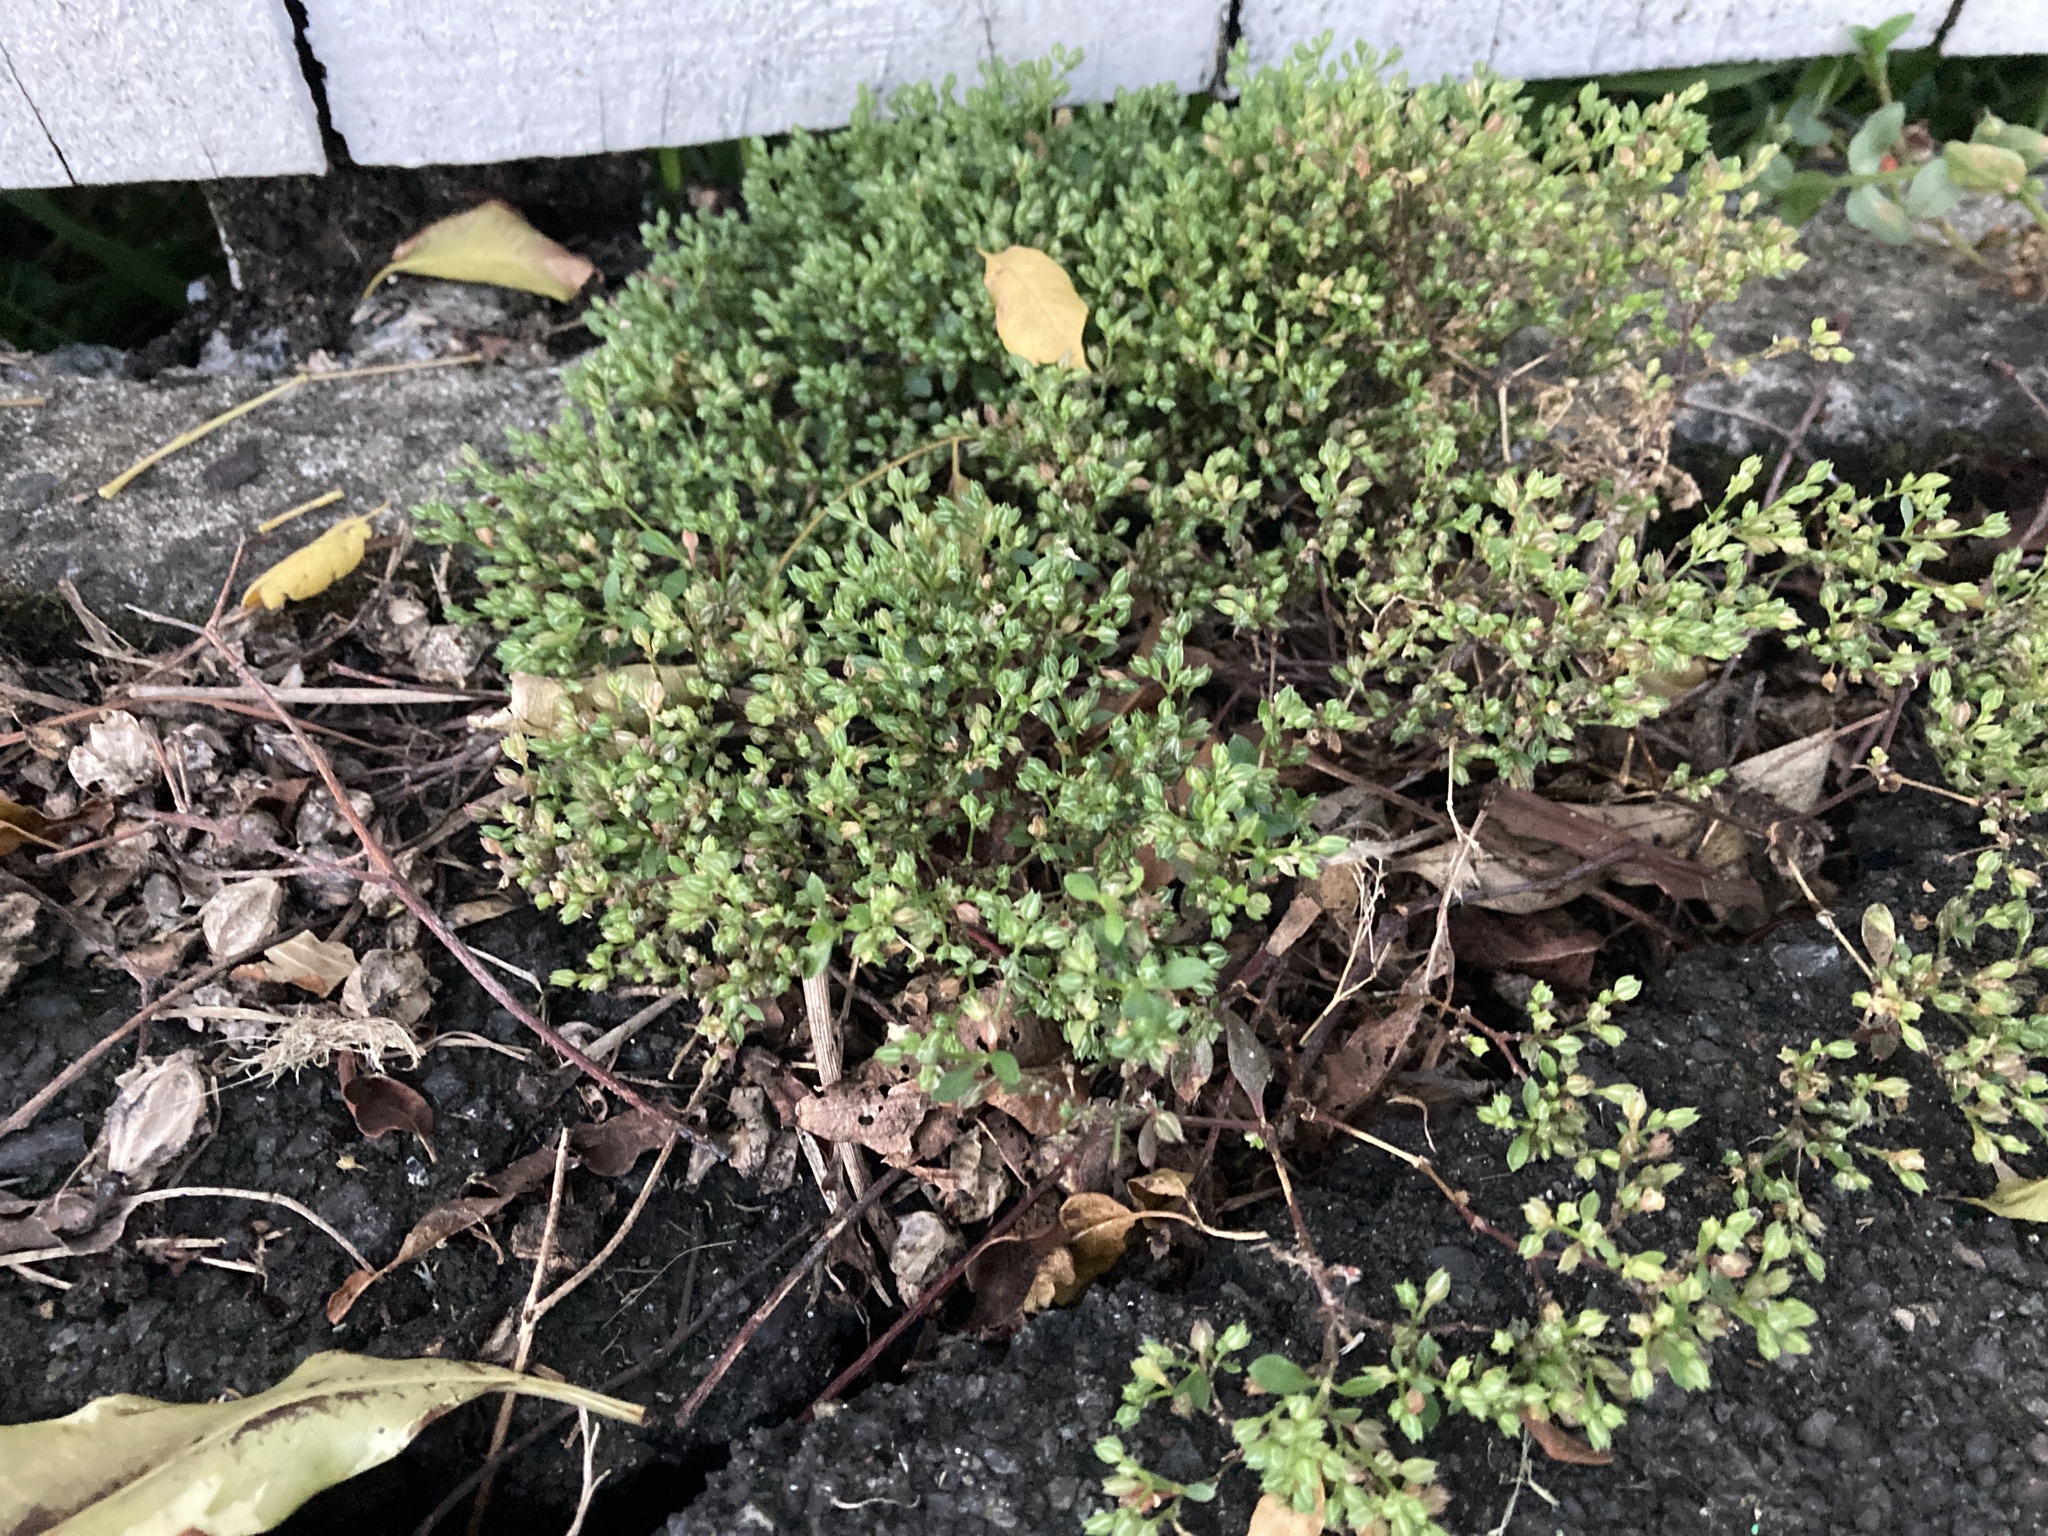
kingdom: Plantae
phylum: Tracheophyta
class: Magnoliopsida
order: Caryophyllales
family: Caryophyllaceae
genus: Polycarpon
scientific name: Polycarpon tetraphyllum
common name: Four-leaved all-seed
